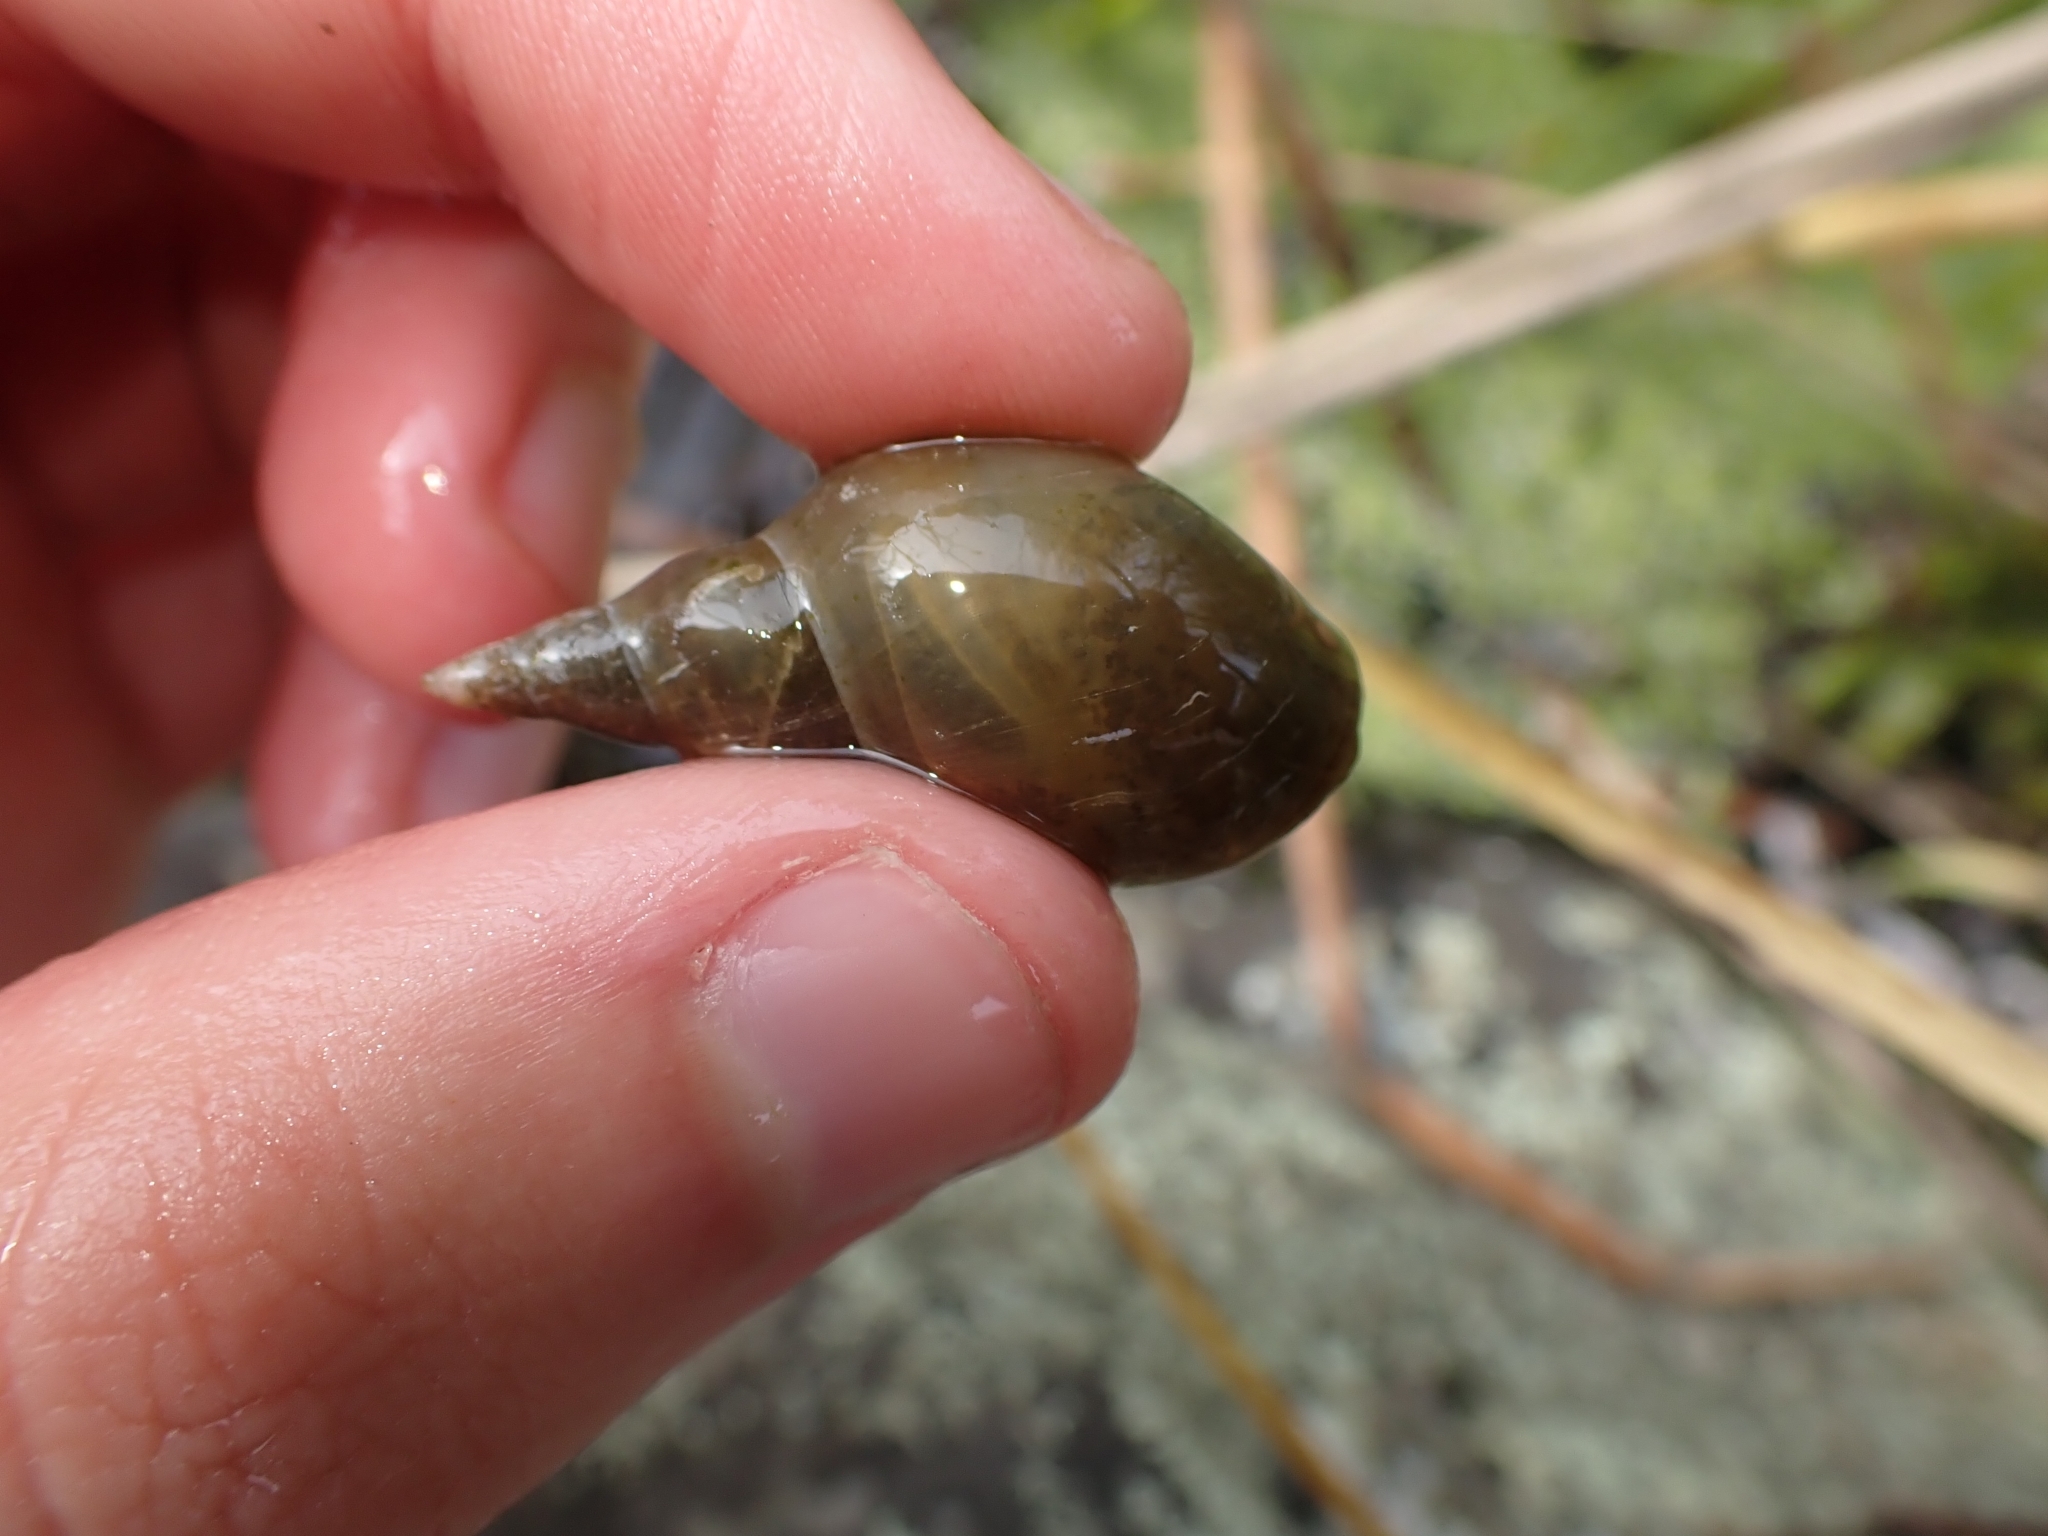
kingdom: Animalia
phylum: Mollusca
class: Gastropoda
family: Lymnaeidae
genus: Lymnaea
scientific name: Lymnaea stagnalis
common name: Great pond snail
